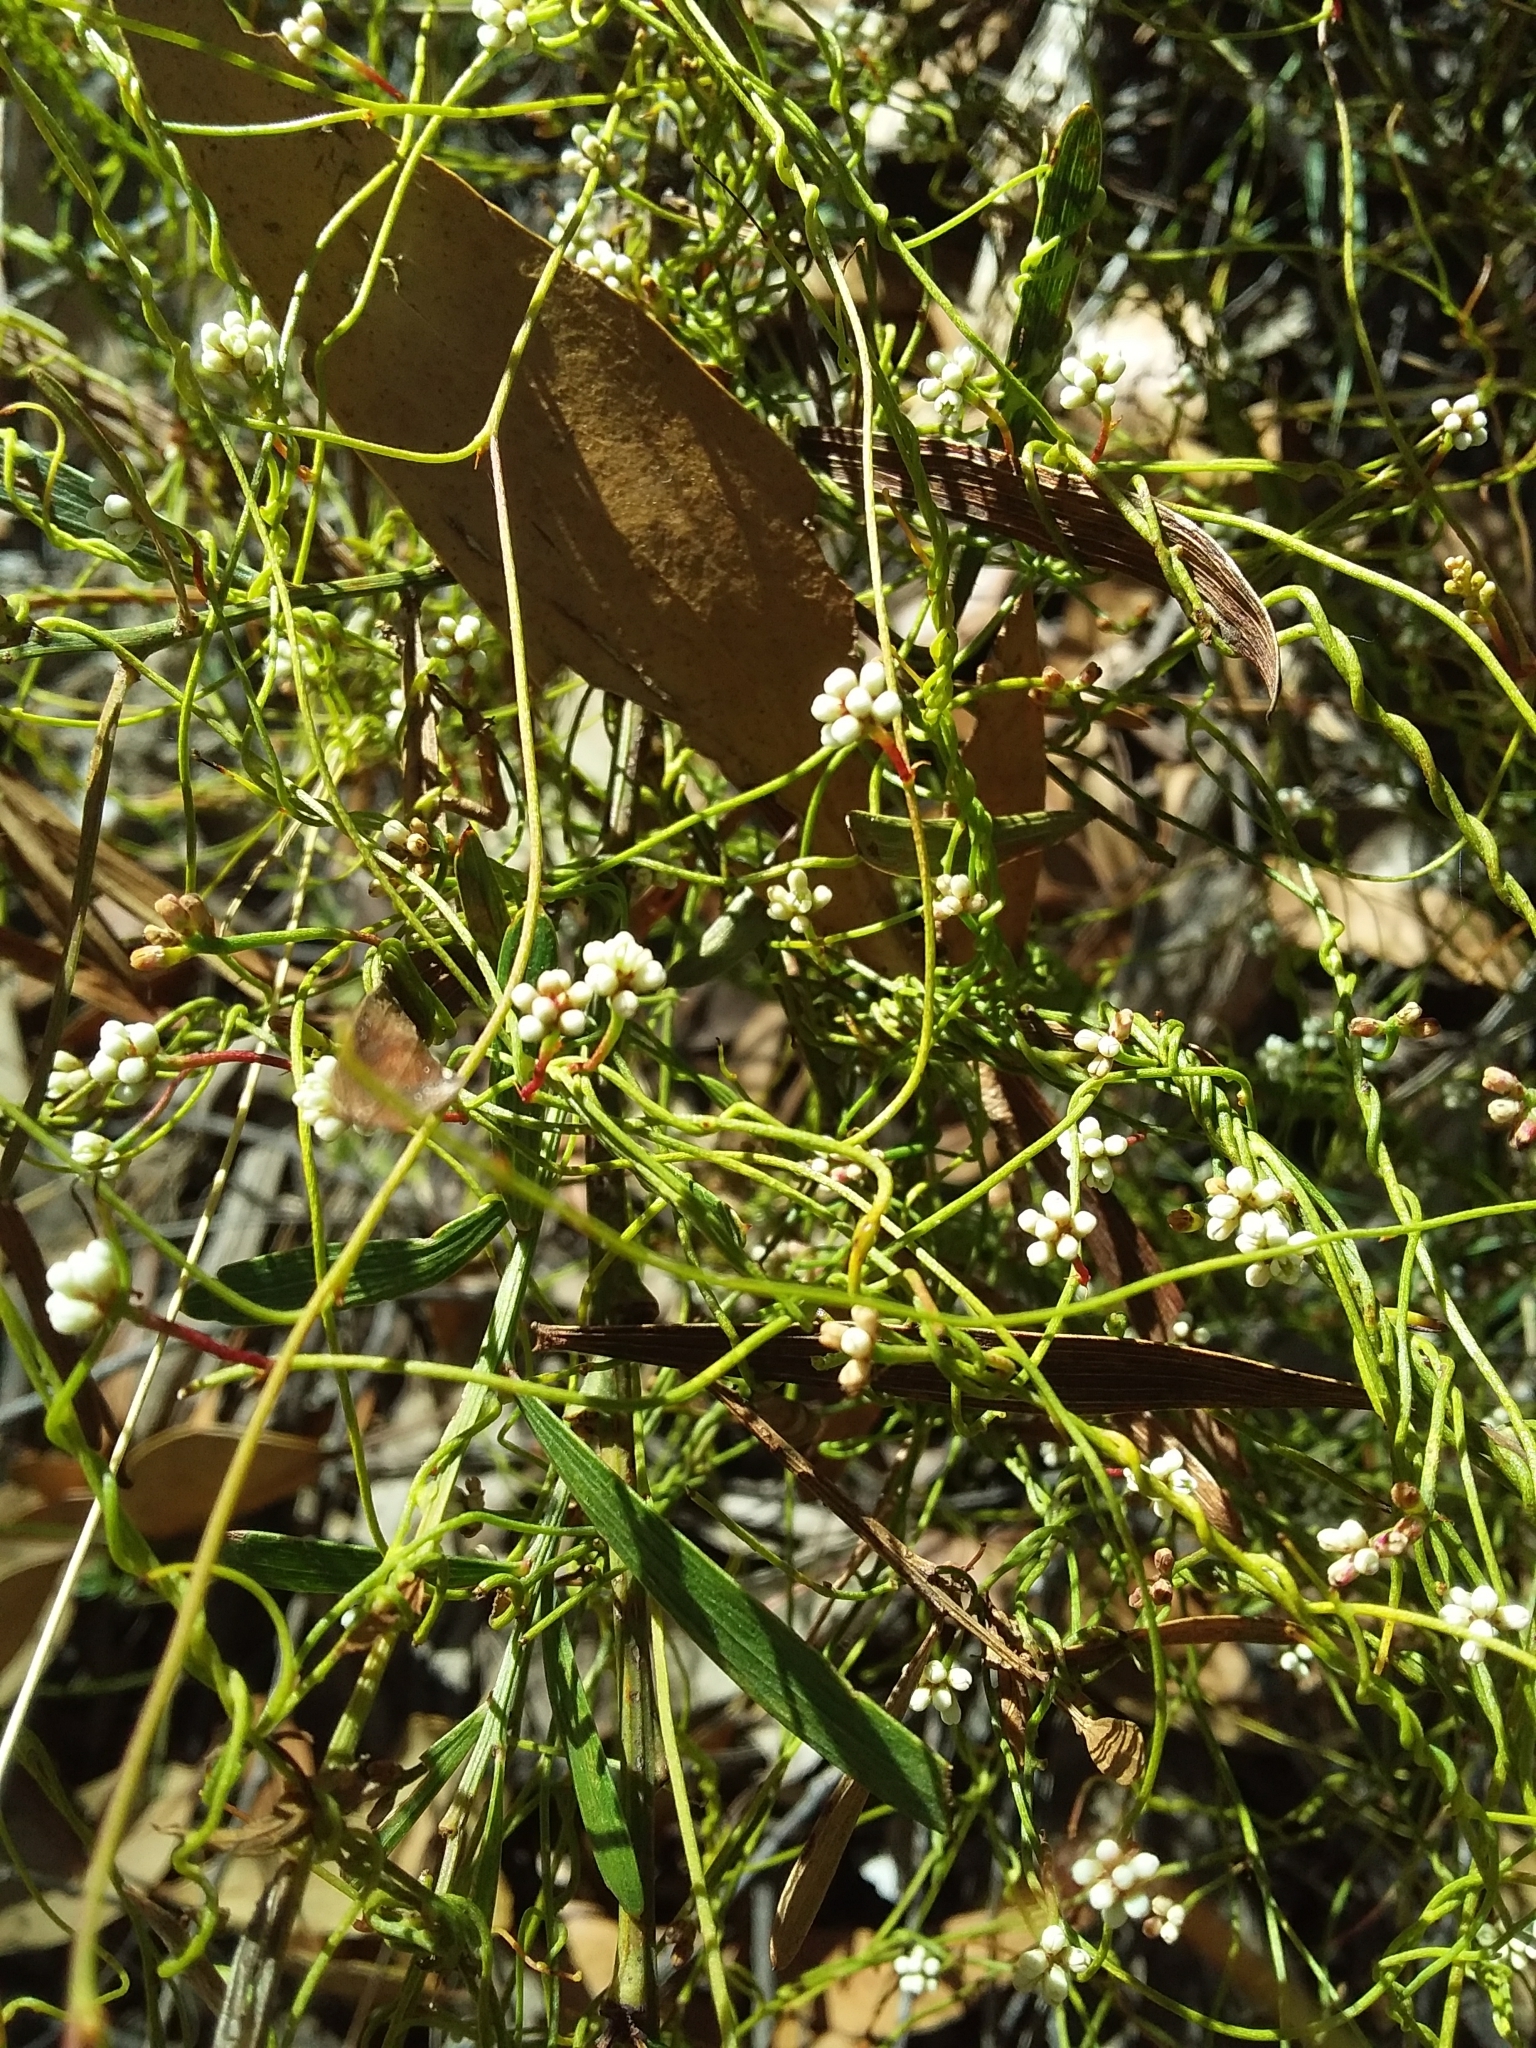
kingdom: Plantae
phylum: Tracheophyta
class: Magnoliopsida
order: Laurales
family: Lauraceae
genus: Cassytha
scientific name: Cassytha glabella
